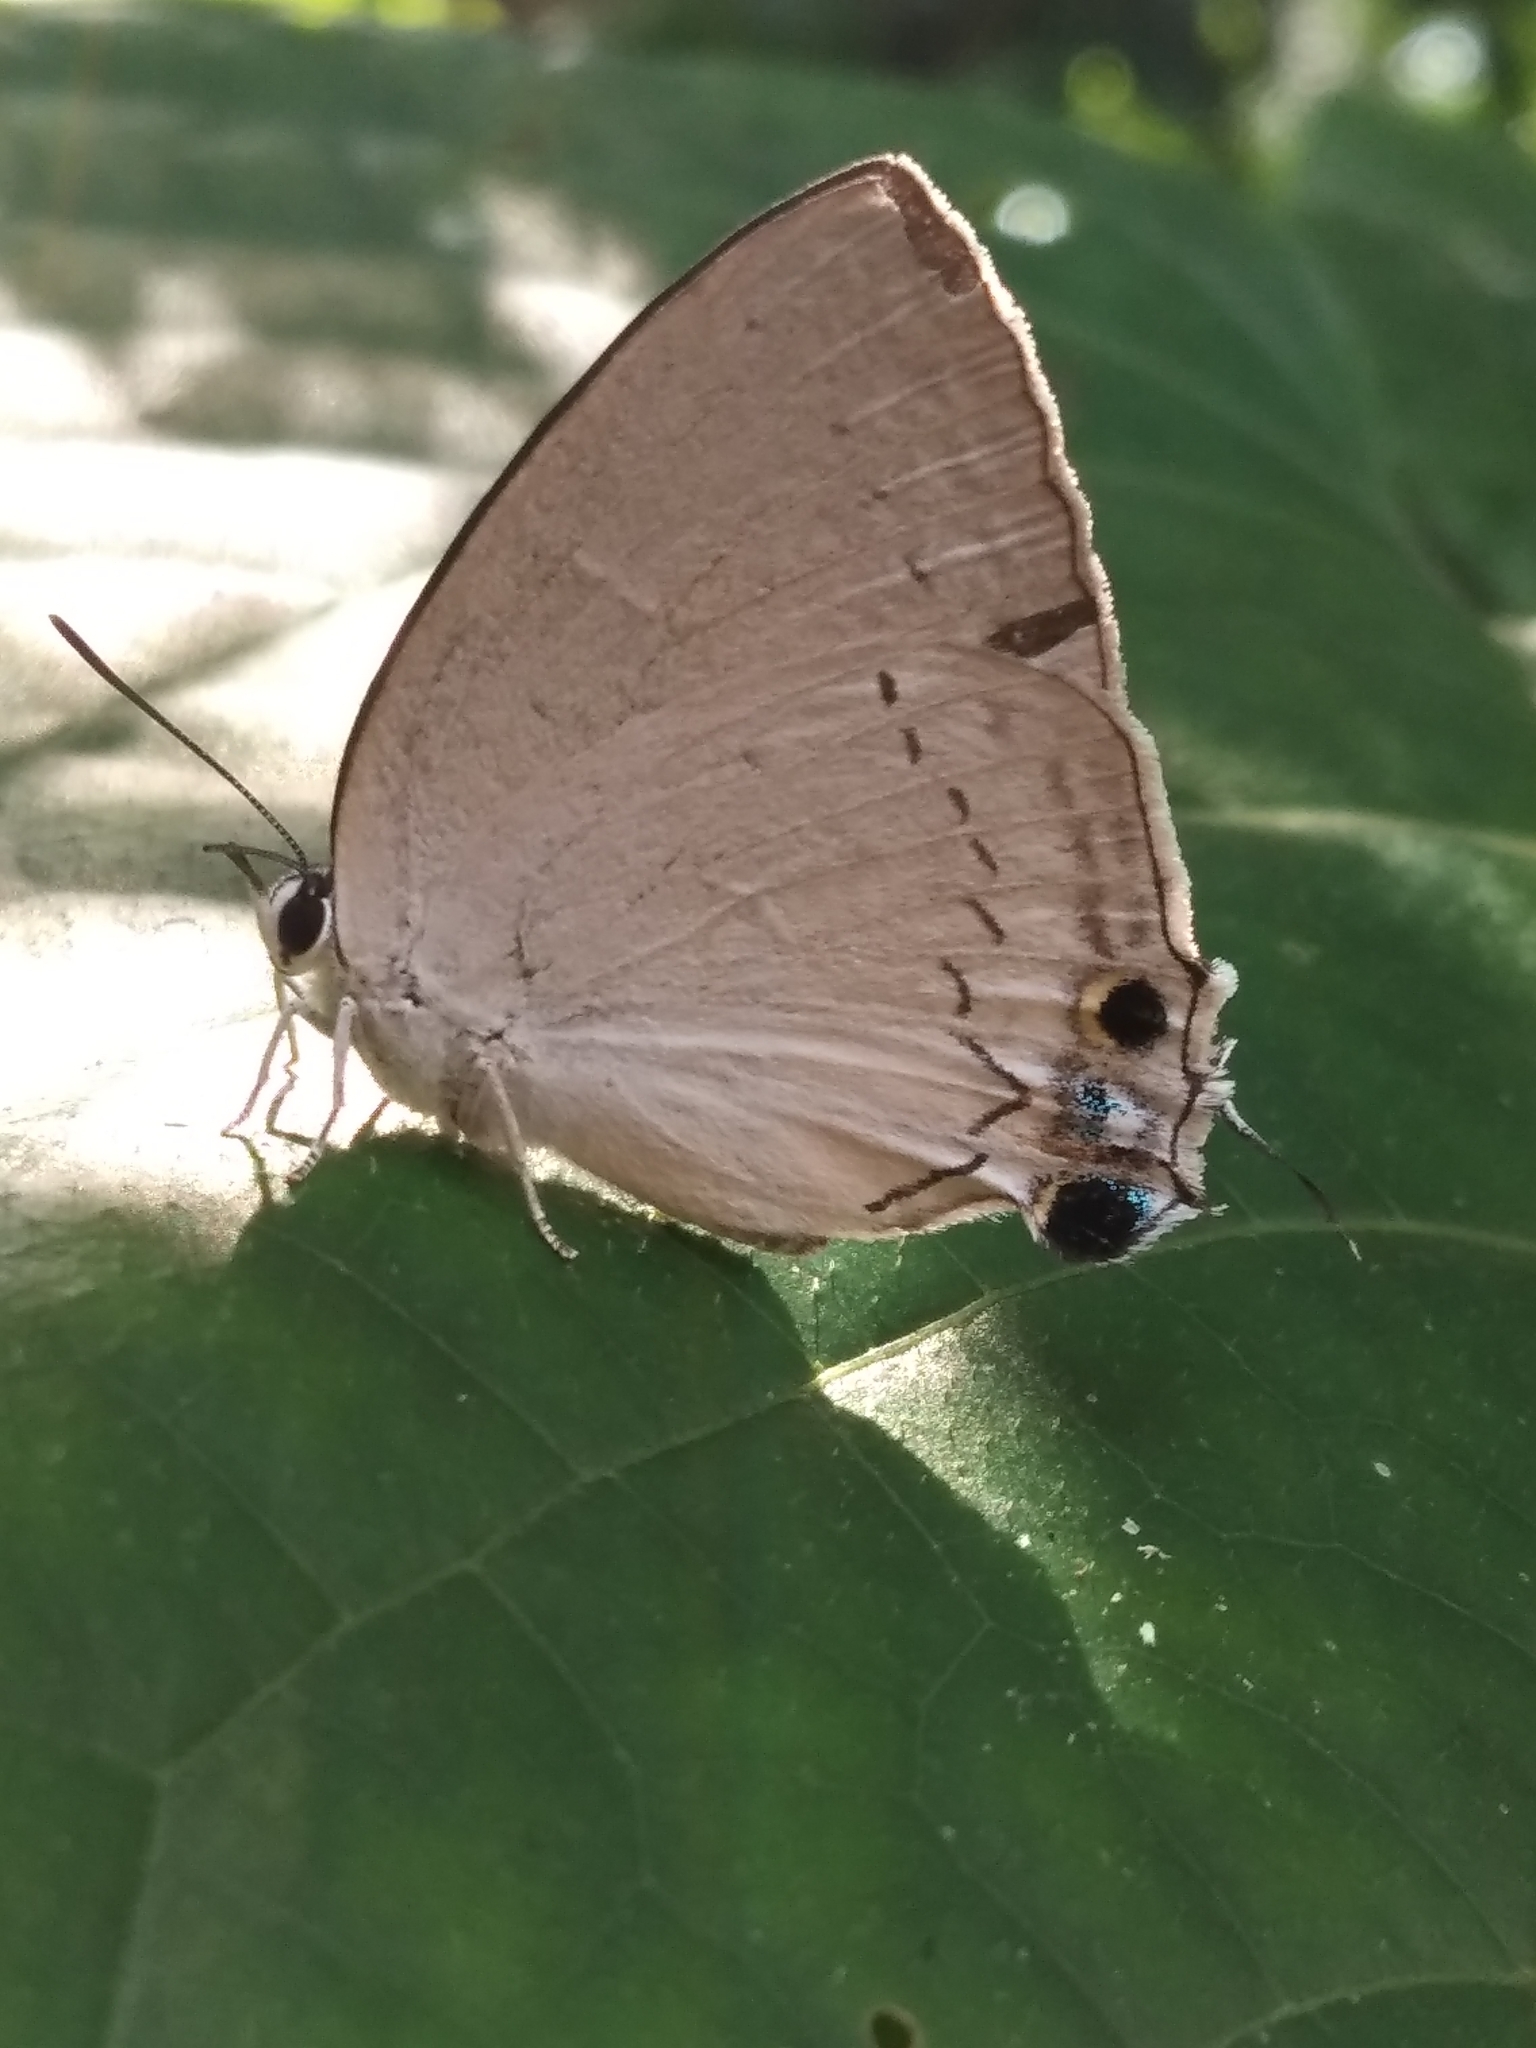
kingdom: Animalia
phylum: Arthropoda
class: Insecta
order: Lepidoptera
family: Lycaenidae
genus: Tajuria
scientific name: Tajuria cippus
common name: Peacock royal
